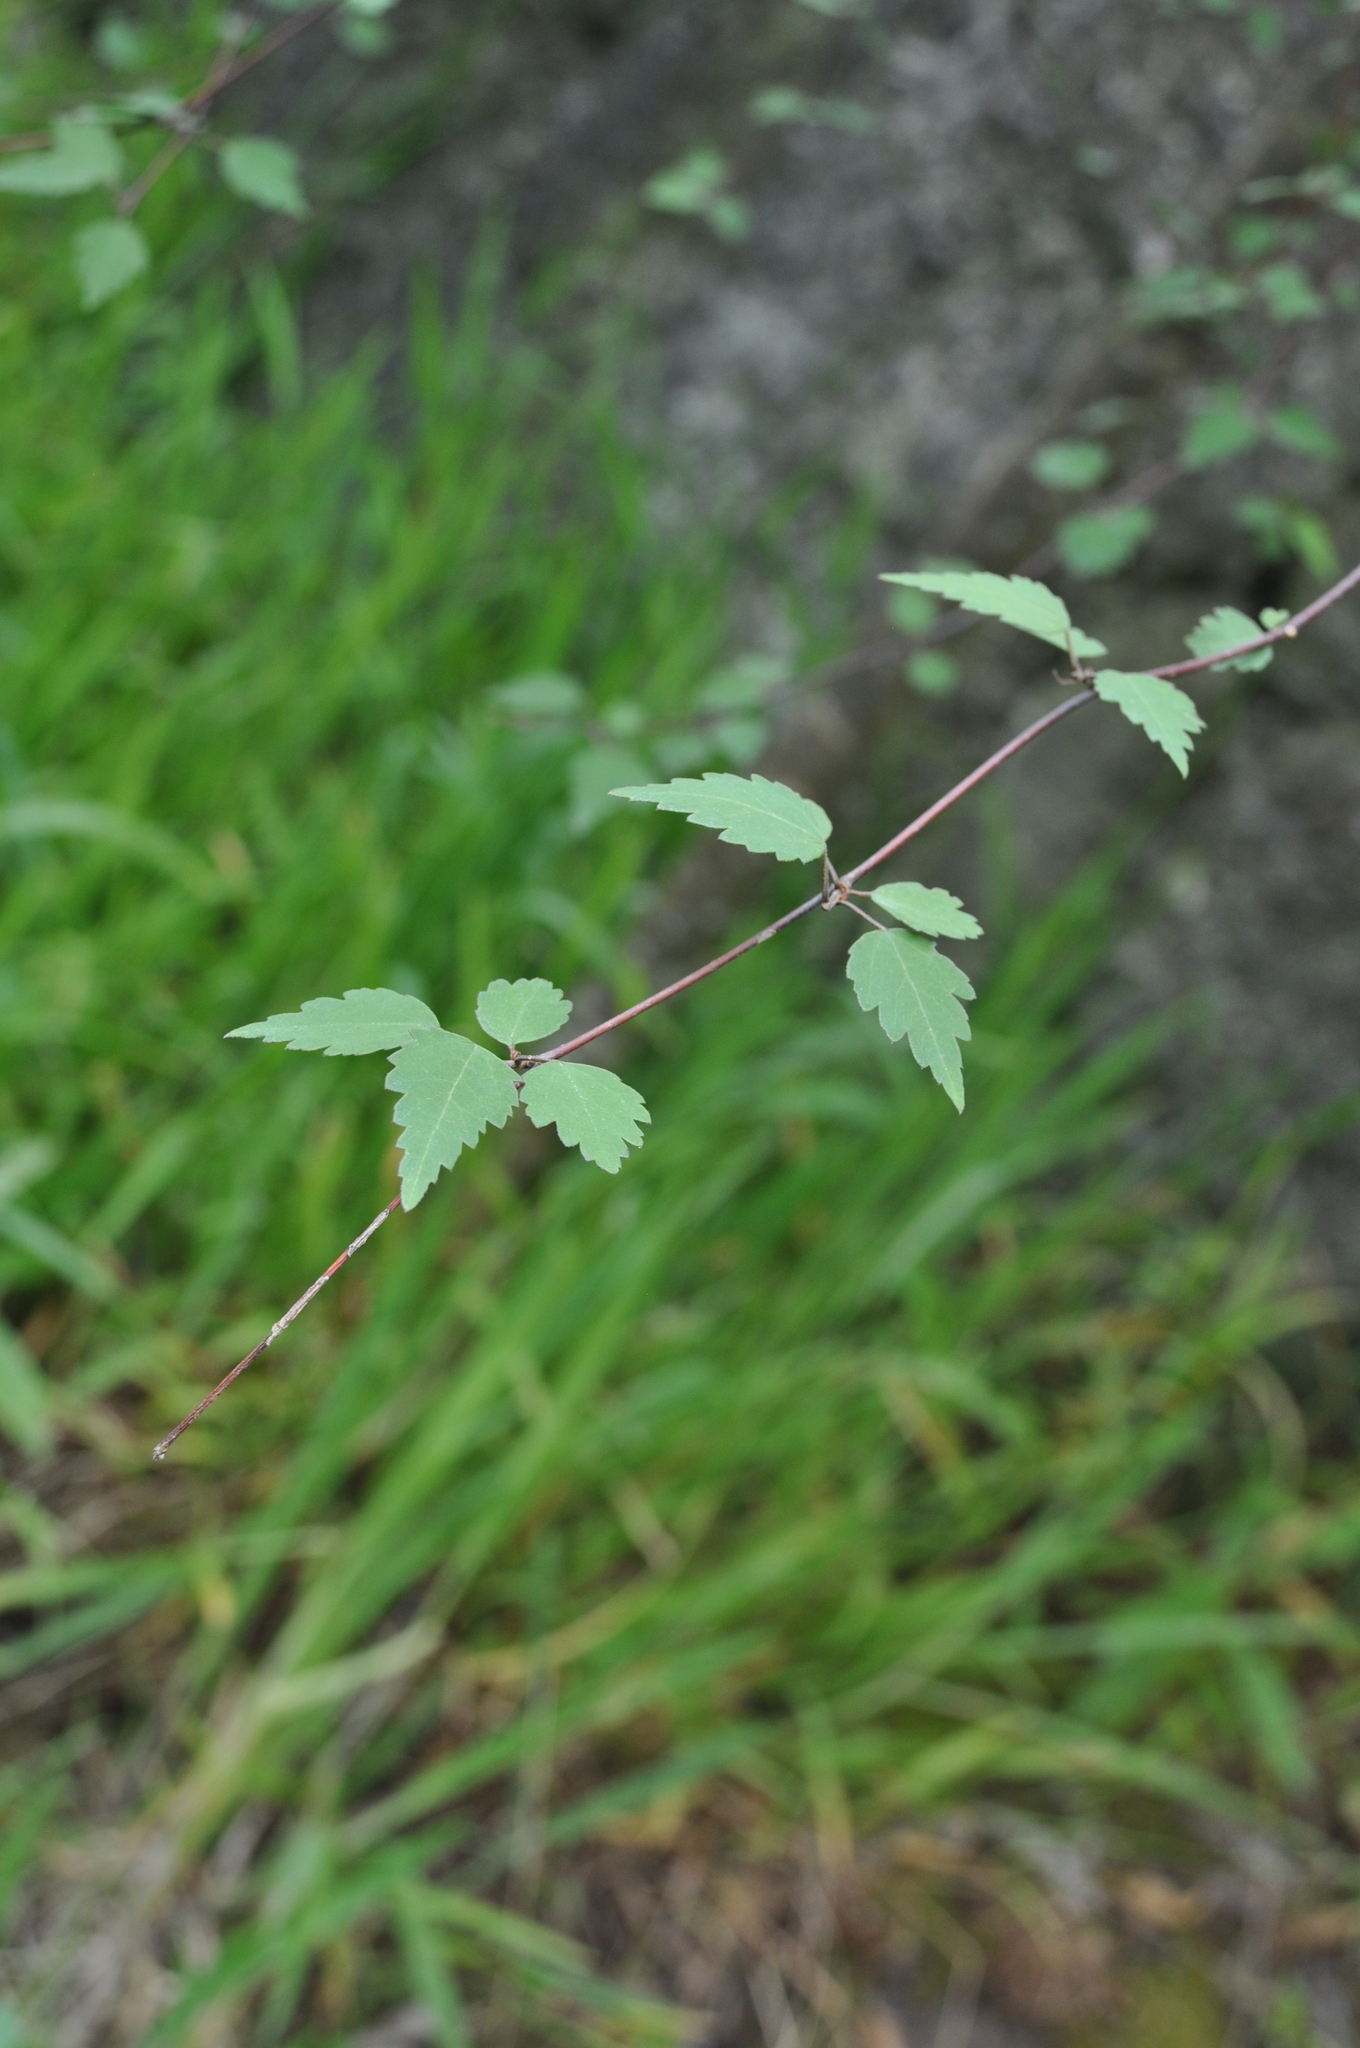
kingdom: Plantae
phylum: Tracheophyta
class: Magnoliopsida
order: Malvales
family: Malvaceae
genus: Plagianthus
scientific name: Plagianthus regius
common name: Manatu
